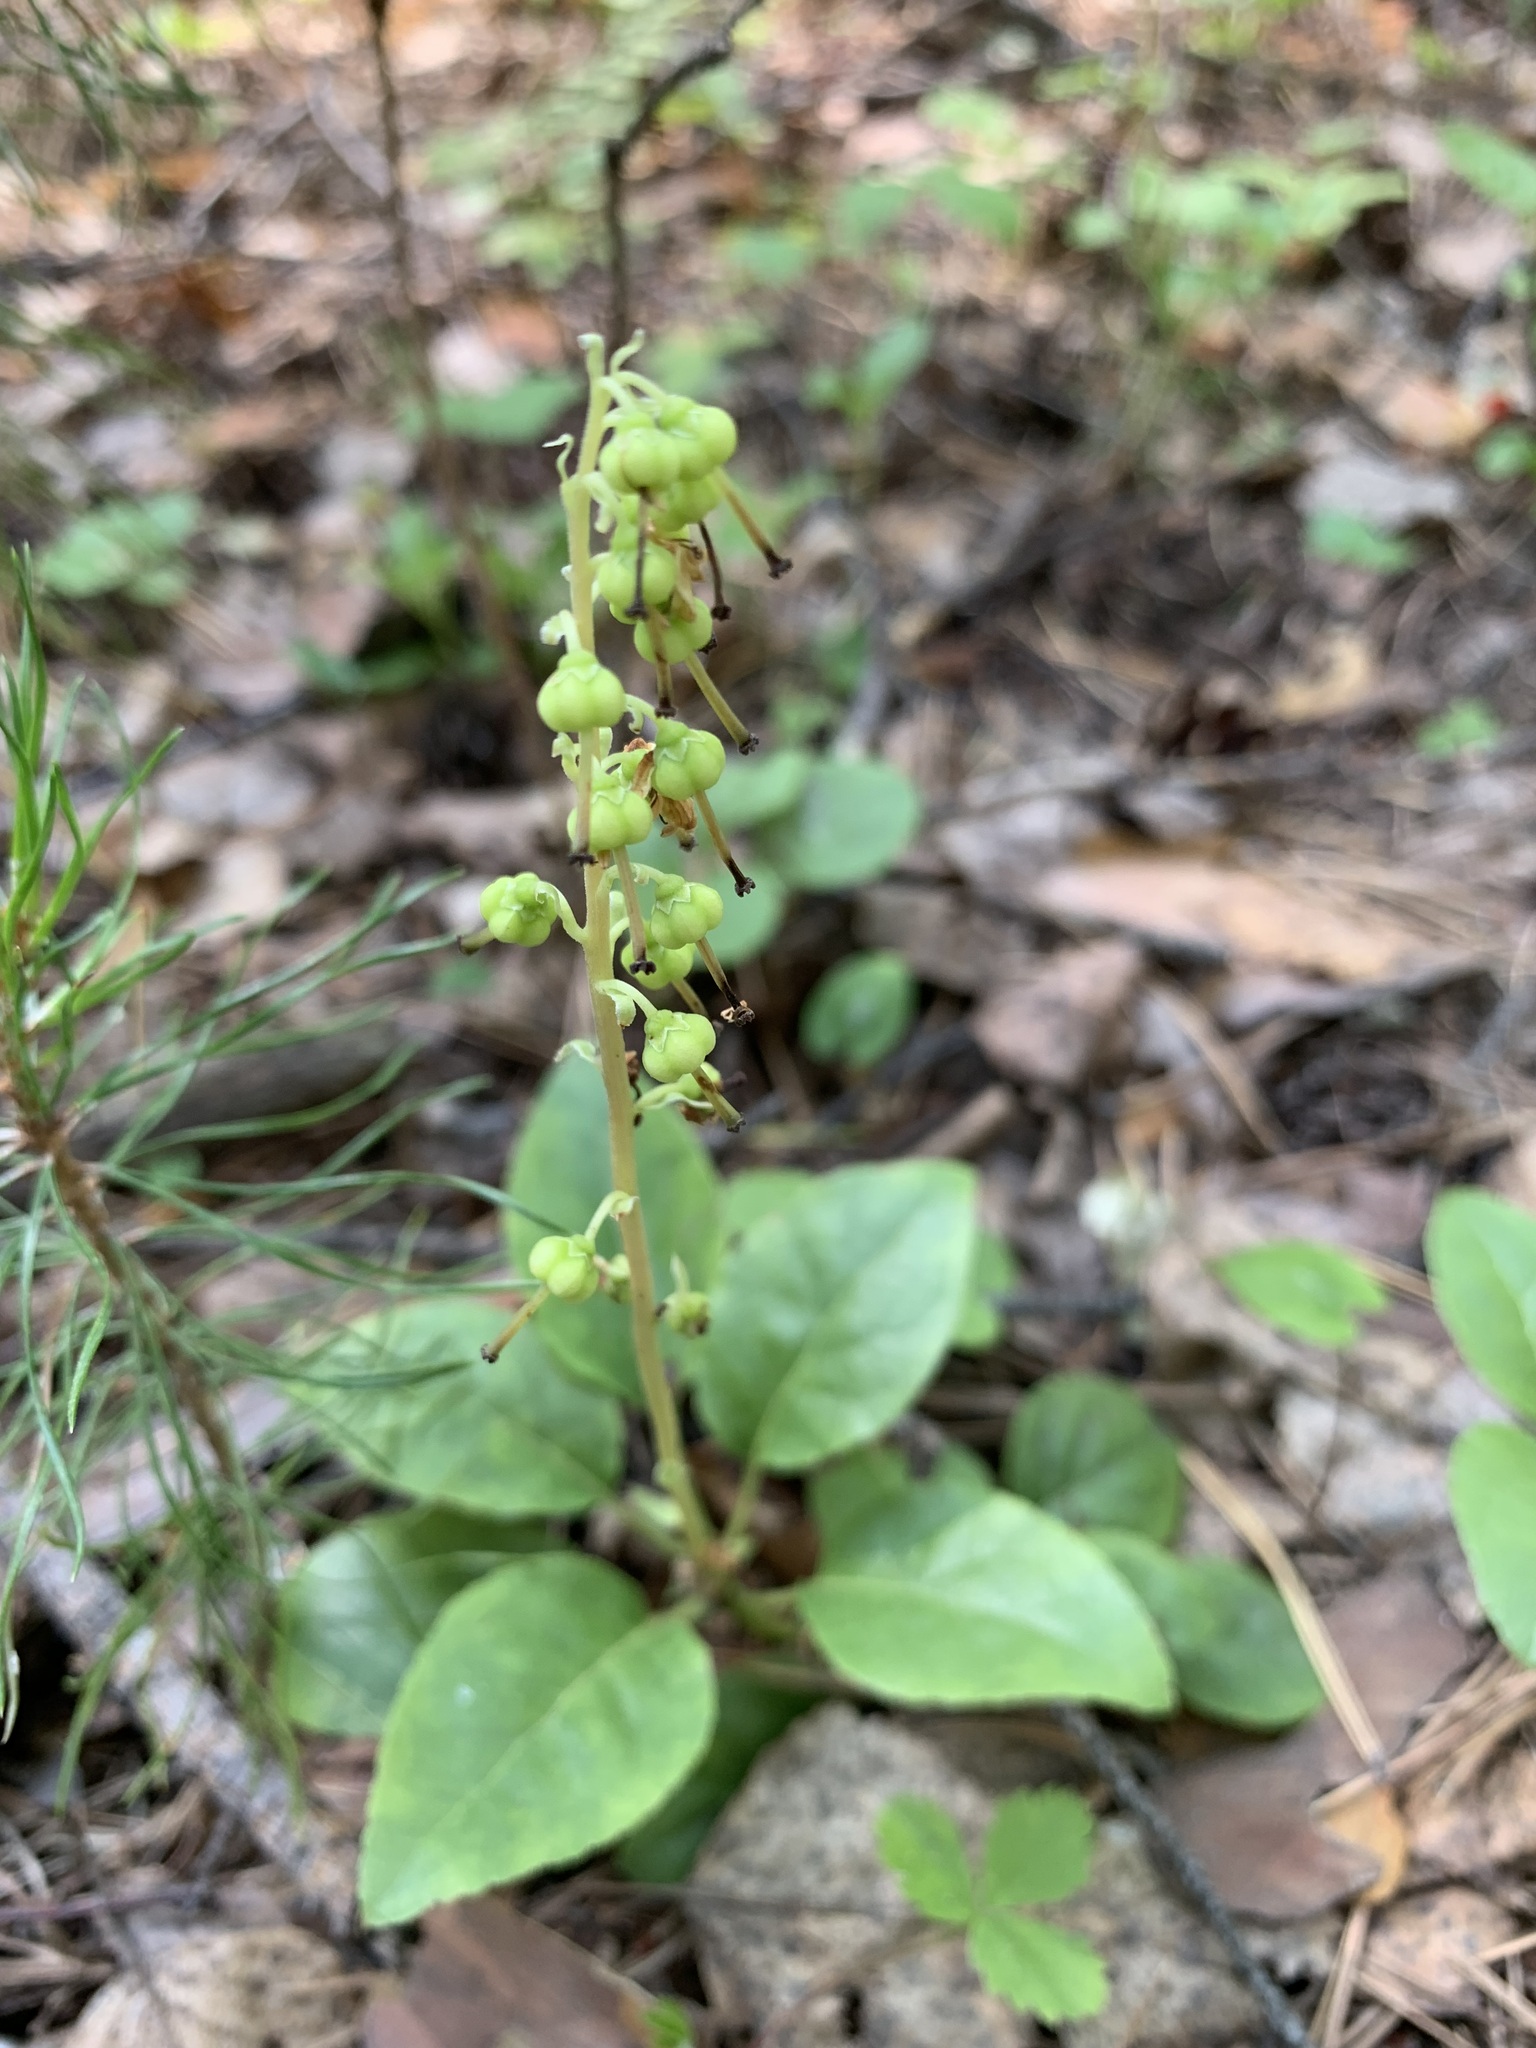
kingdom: Plantae
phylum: Tracheophyta
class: Magnoliopsida
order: Ericales
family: Ericaceae
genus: Orthilia
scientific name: Orthilia secunda
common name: One-sided orthilia
